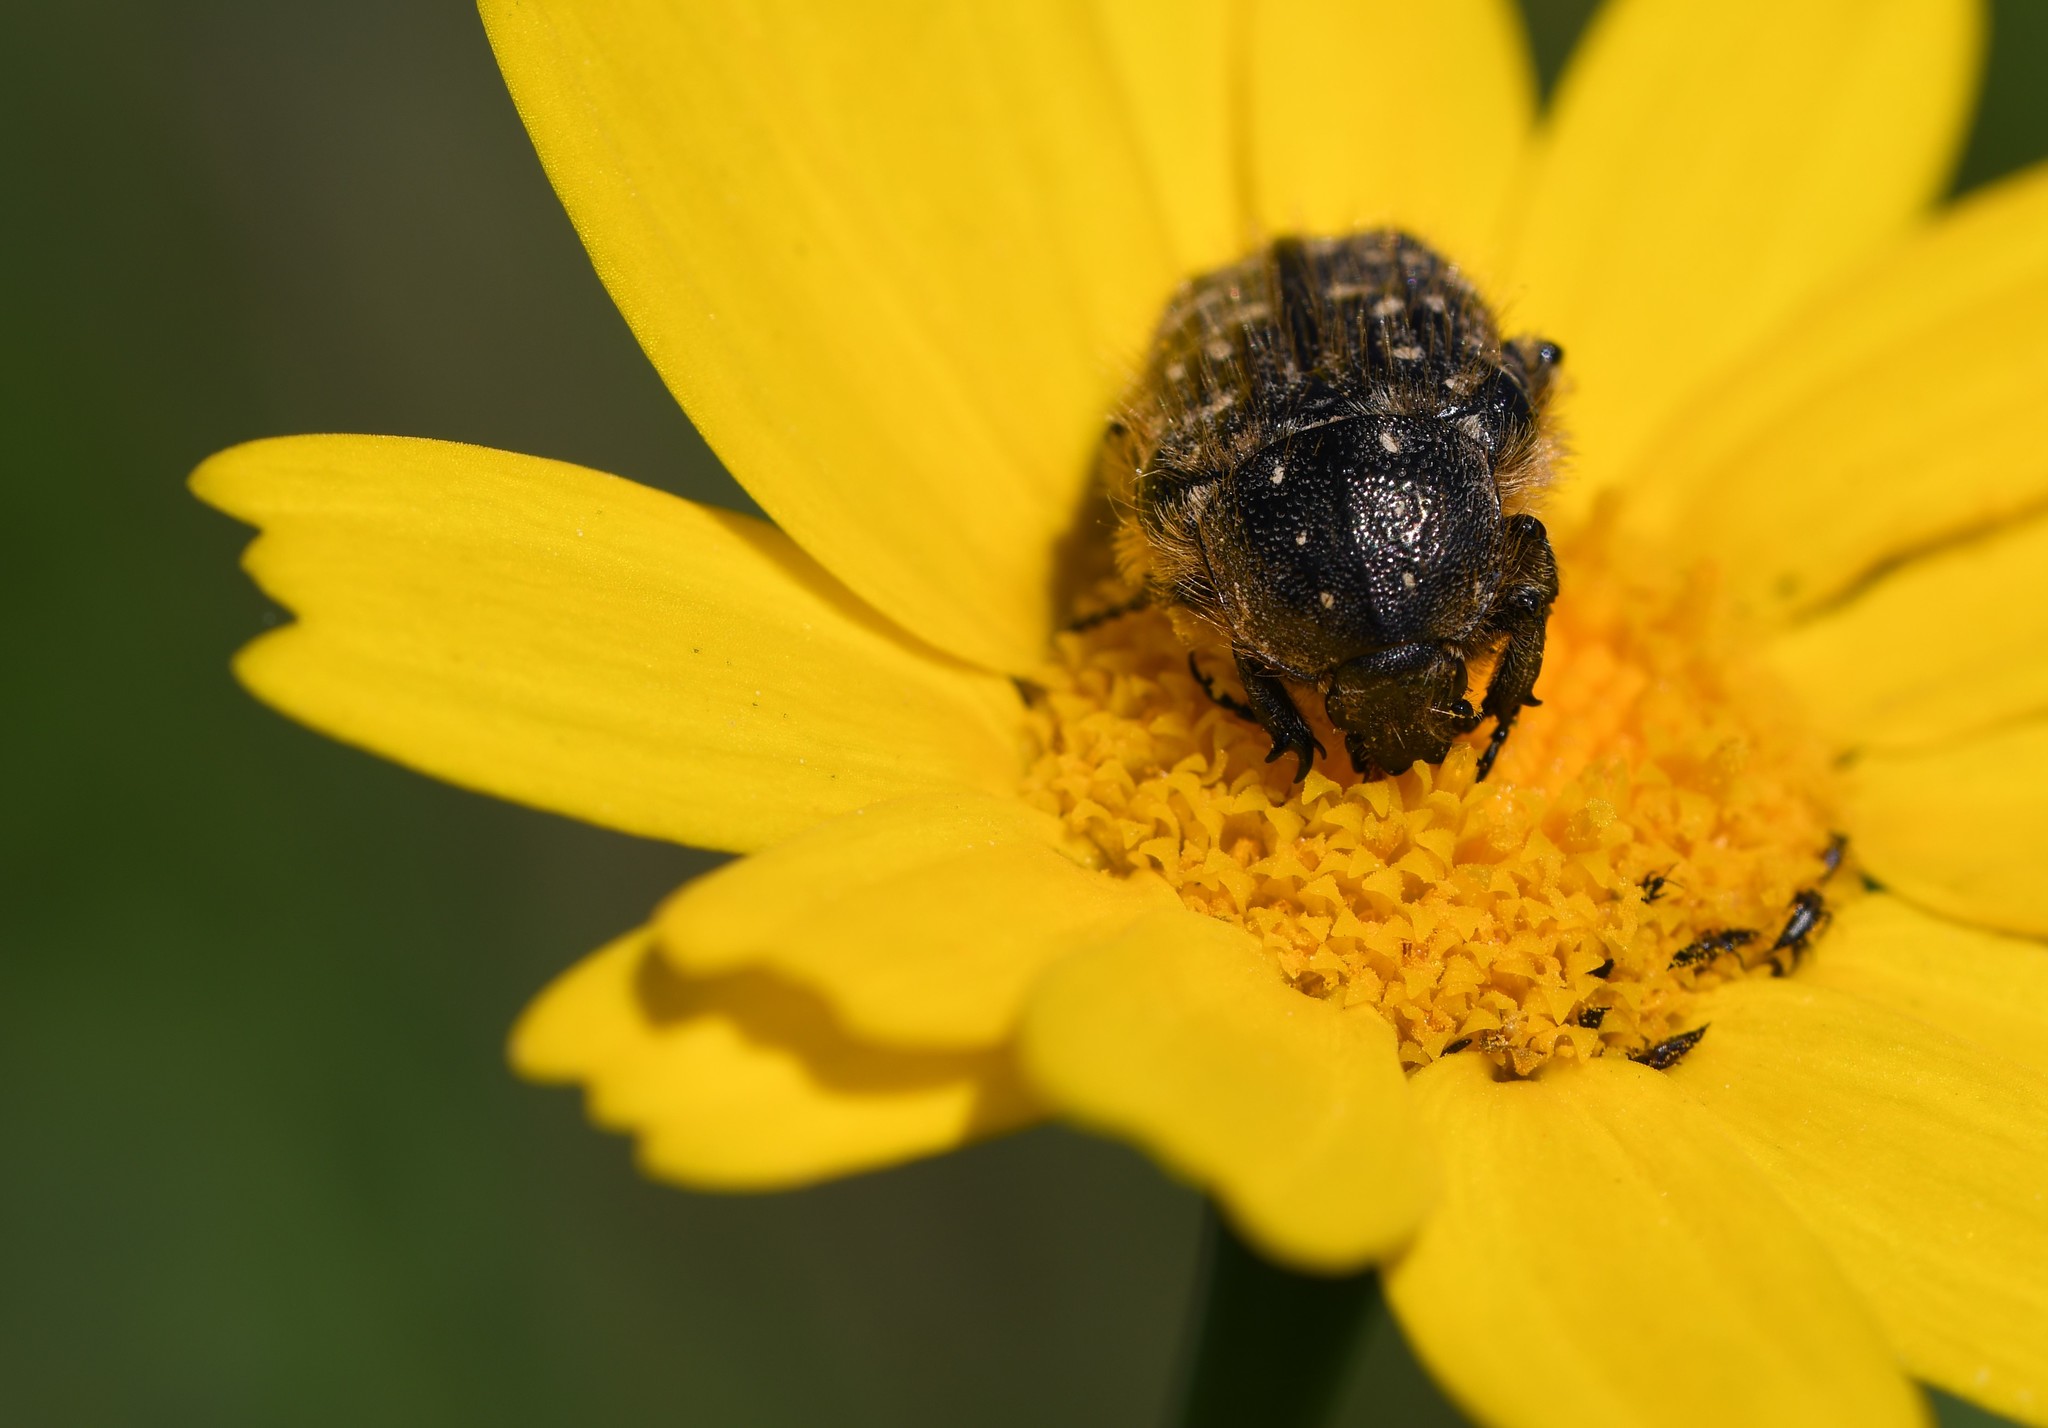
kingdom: Animalia
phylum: Arthropoda
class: Insecta
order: Coleoptera
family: Scarabaeidae
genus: Oxythyrea
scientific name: Oxythyrea funesta
